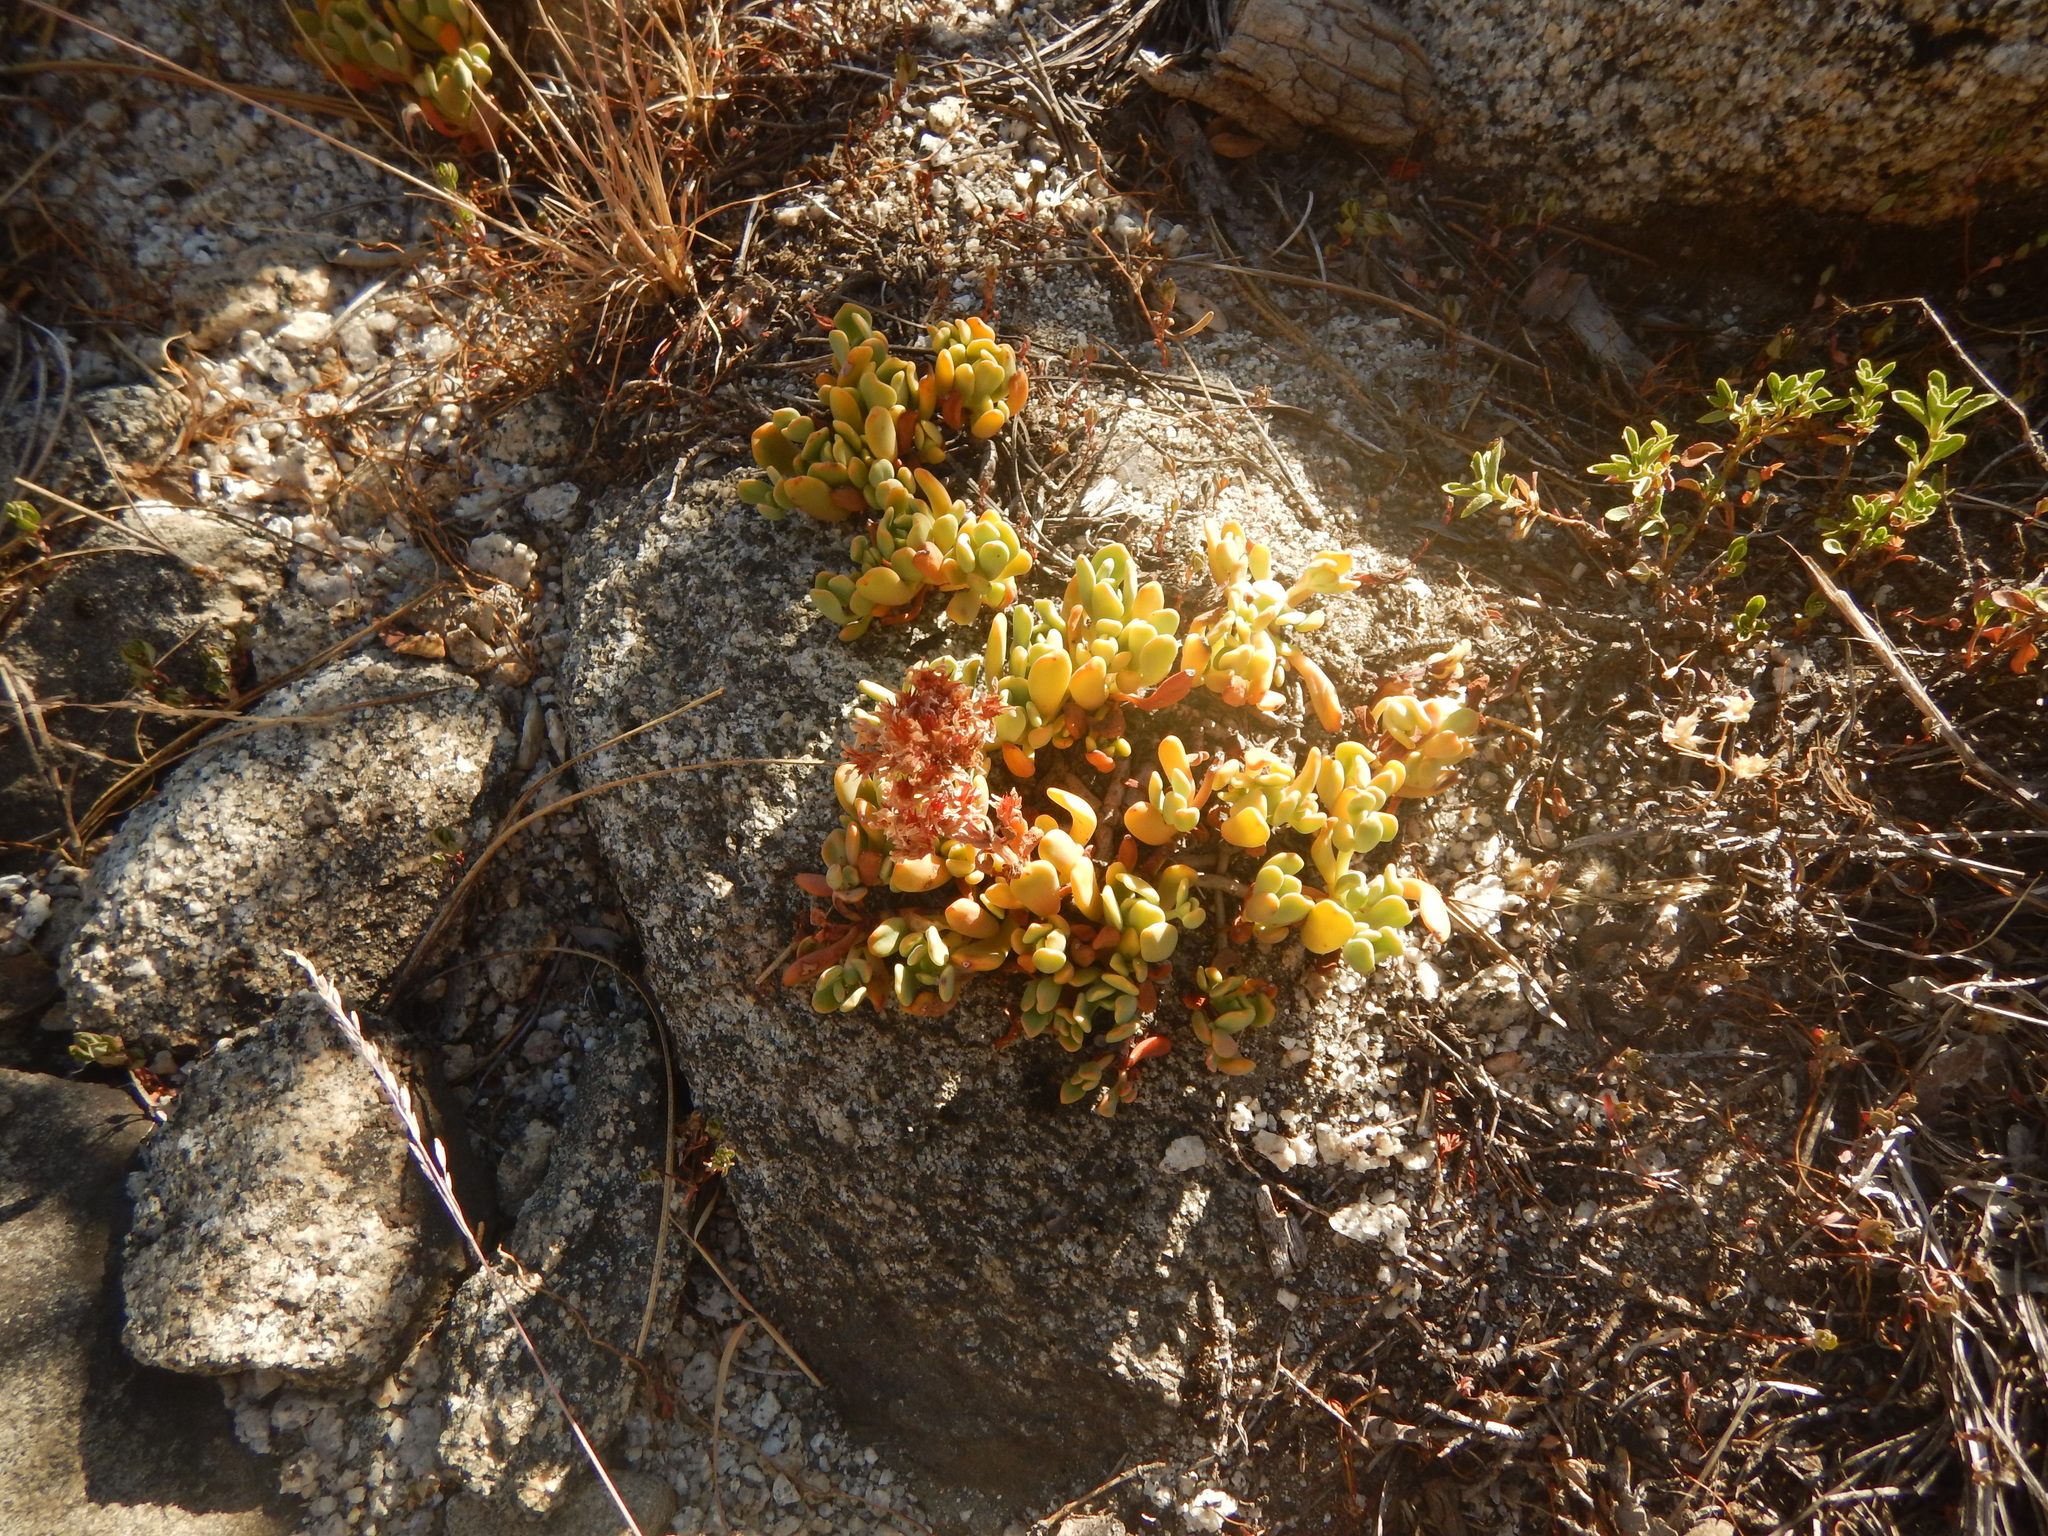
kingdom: Plantae
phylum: Tracheophyta
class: Magnoliopsida
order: Saxifragales
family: Crassulaceae
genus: Sedum
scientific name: Sedum obtusatum
